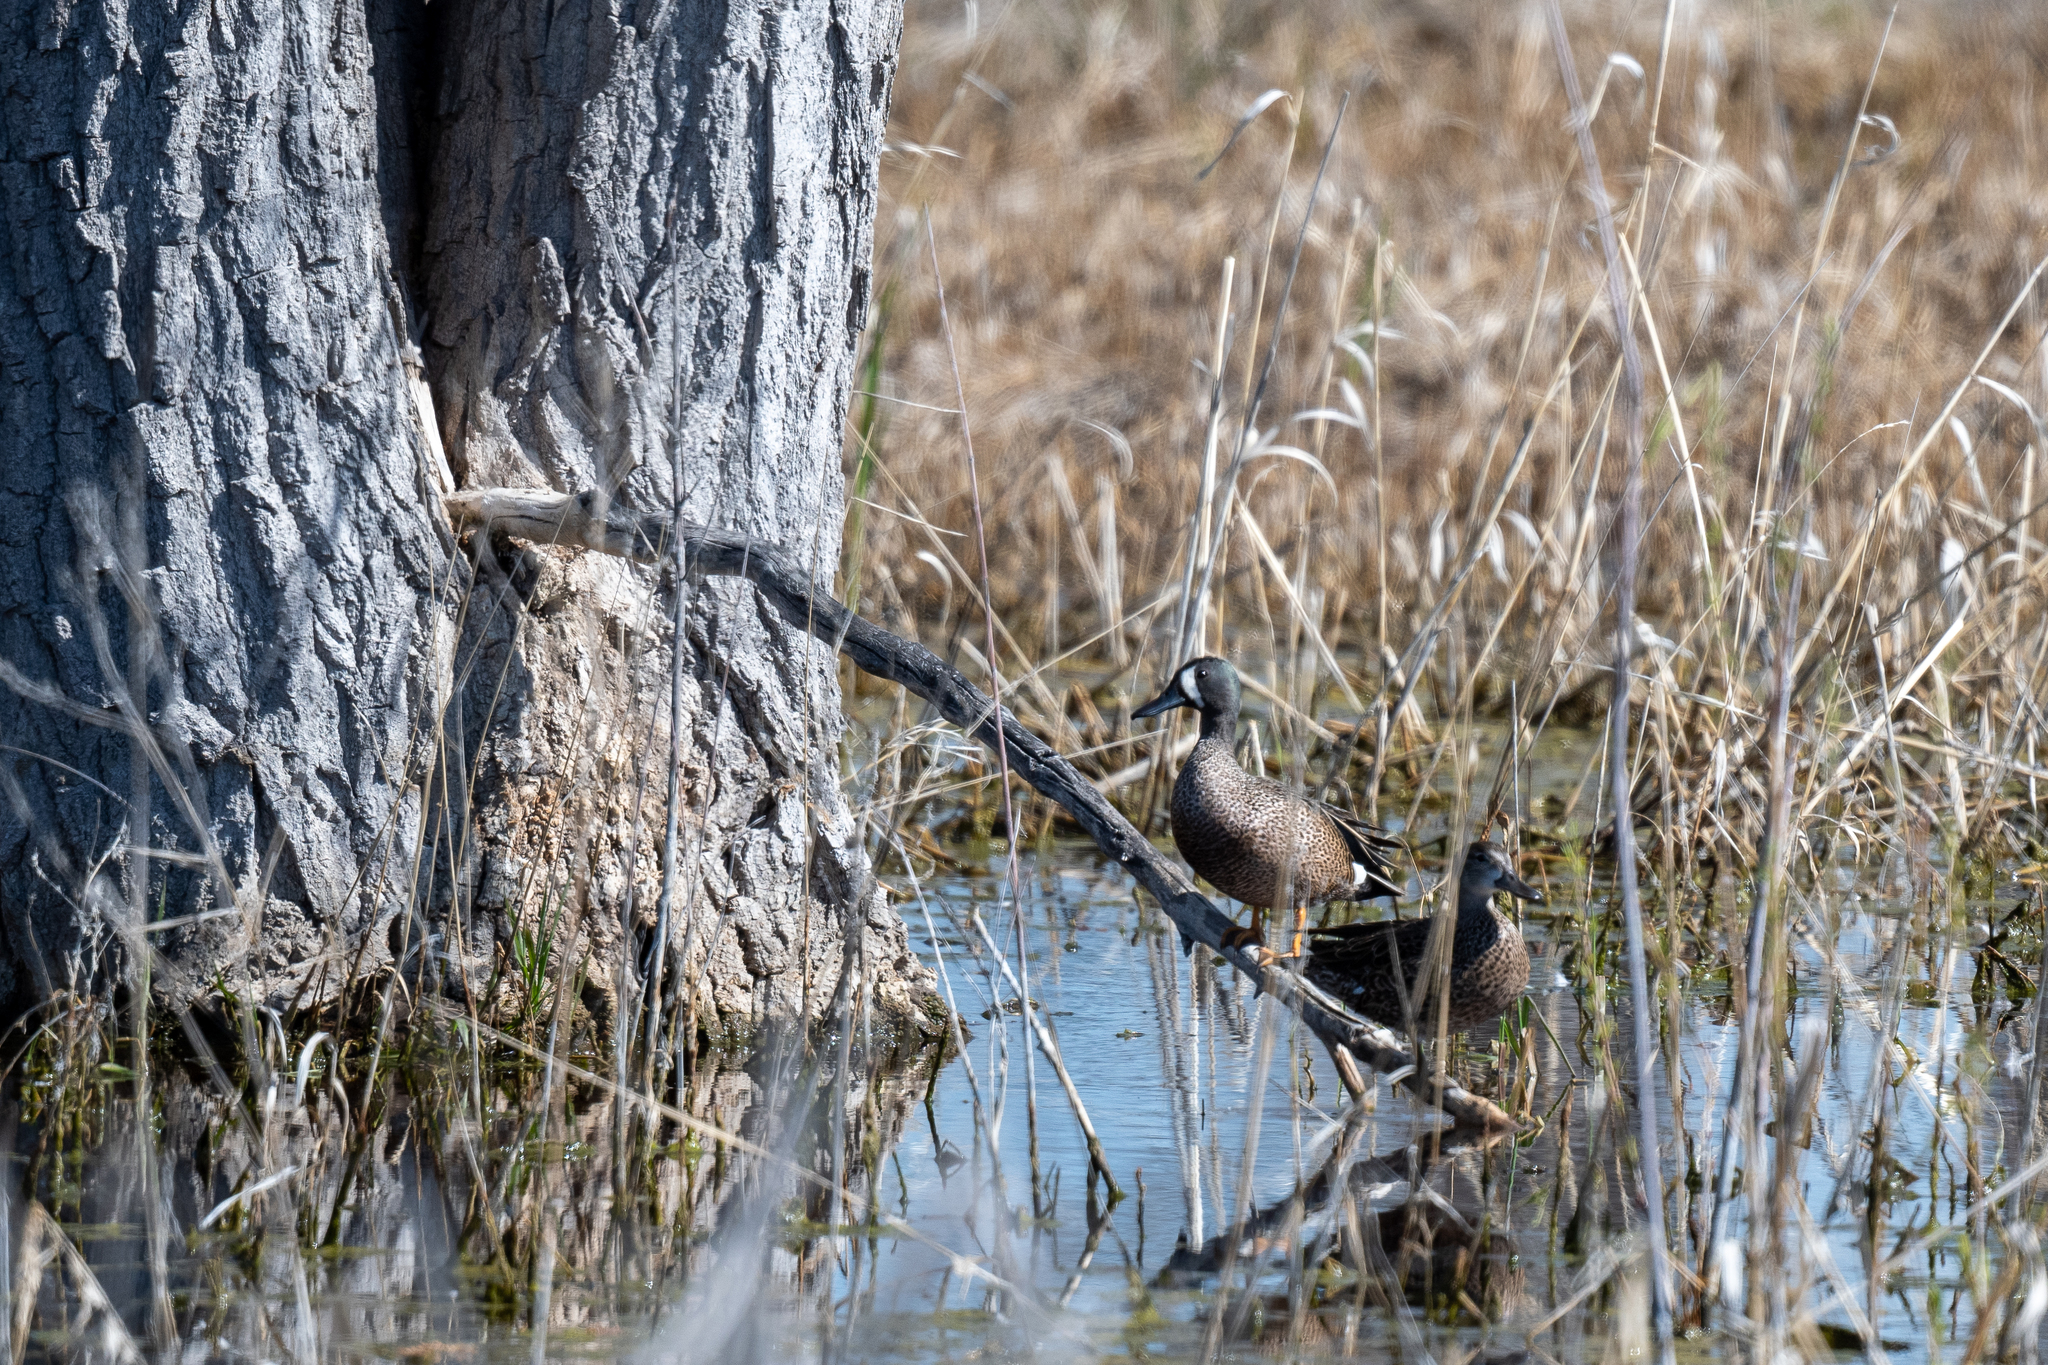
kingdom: Animalia
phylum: Chordata
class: Aves
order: Anseriformes
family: Anatidae
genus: Spatula
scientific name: Spatula discors
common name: Blue-winged teal
